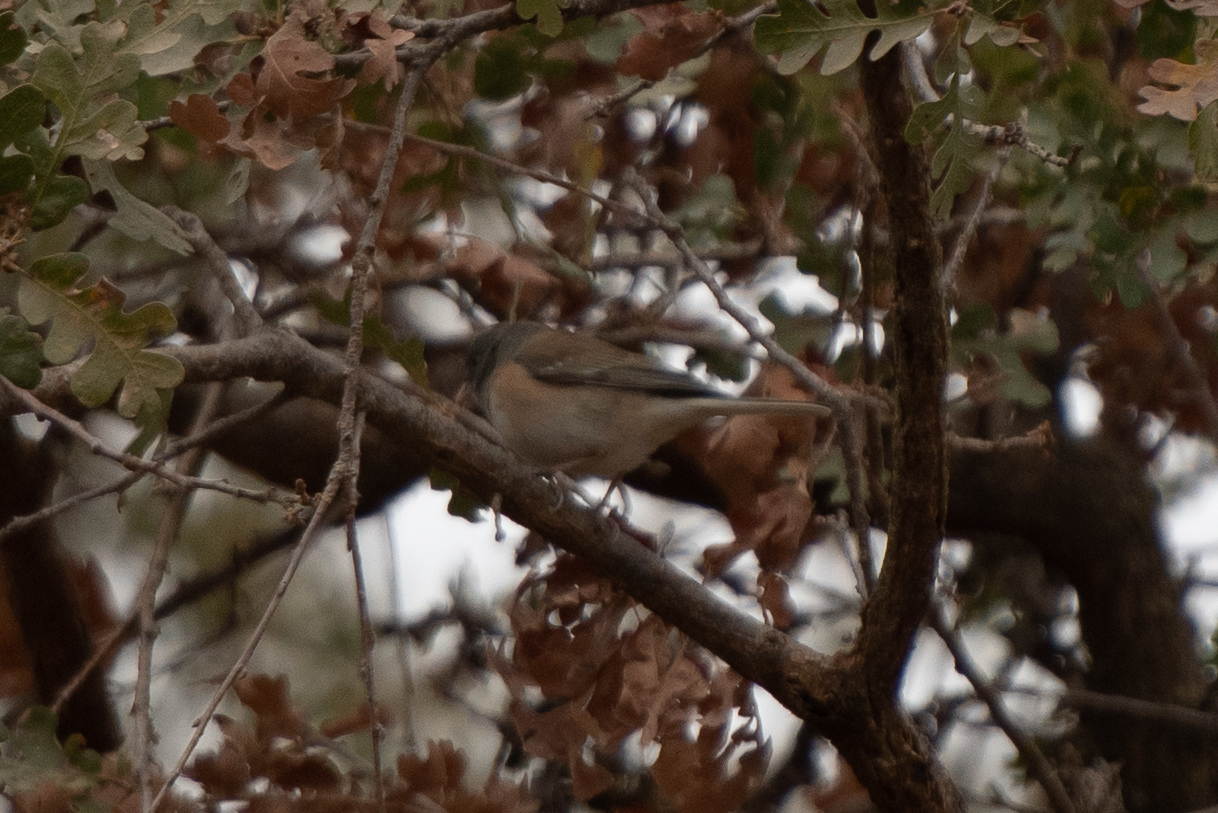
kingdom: Animalia
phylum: Chordata
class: Aves
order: Passeriformes
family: Passerellidae
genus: Junco
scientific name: Junco hyemalis
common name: Dark-eyed junco
